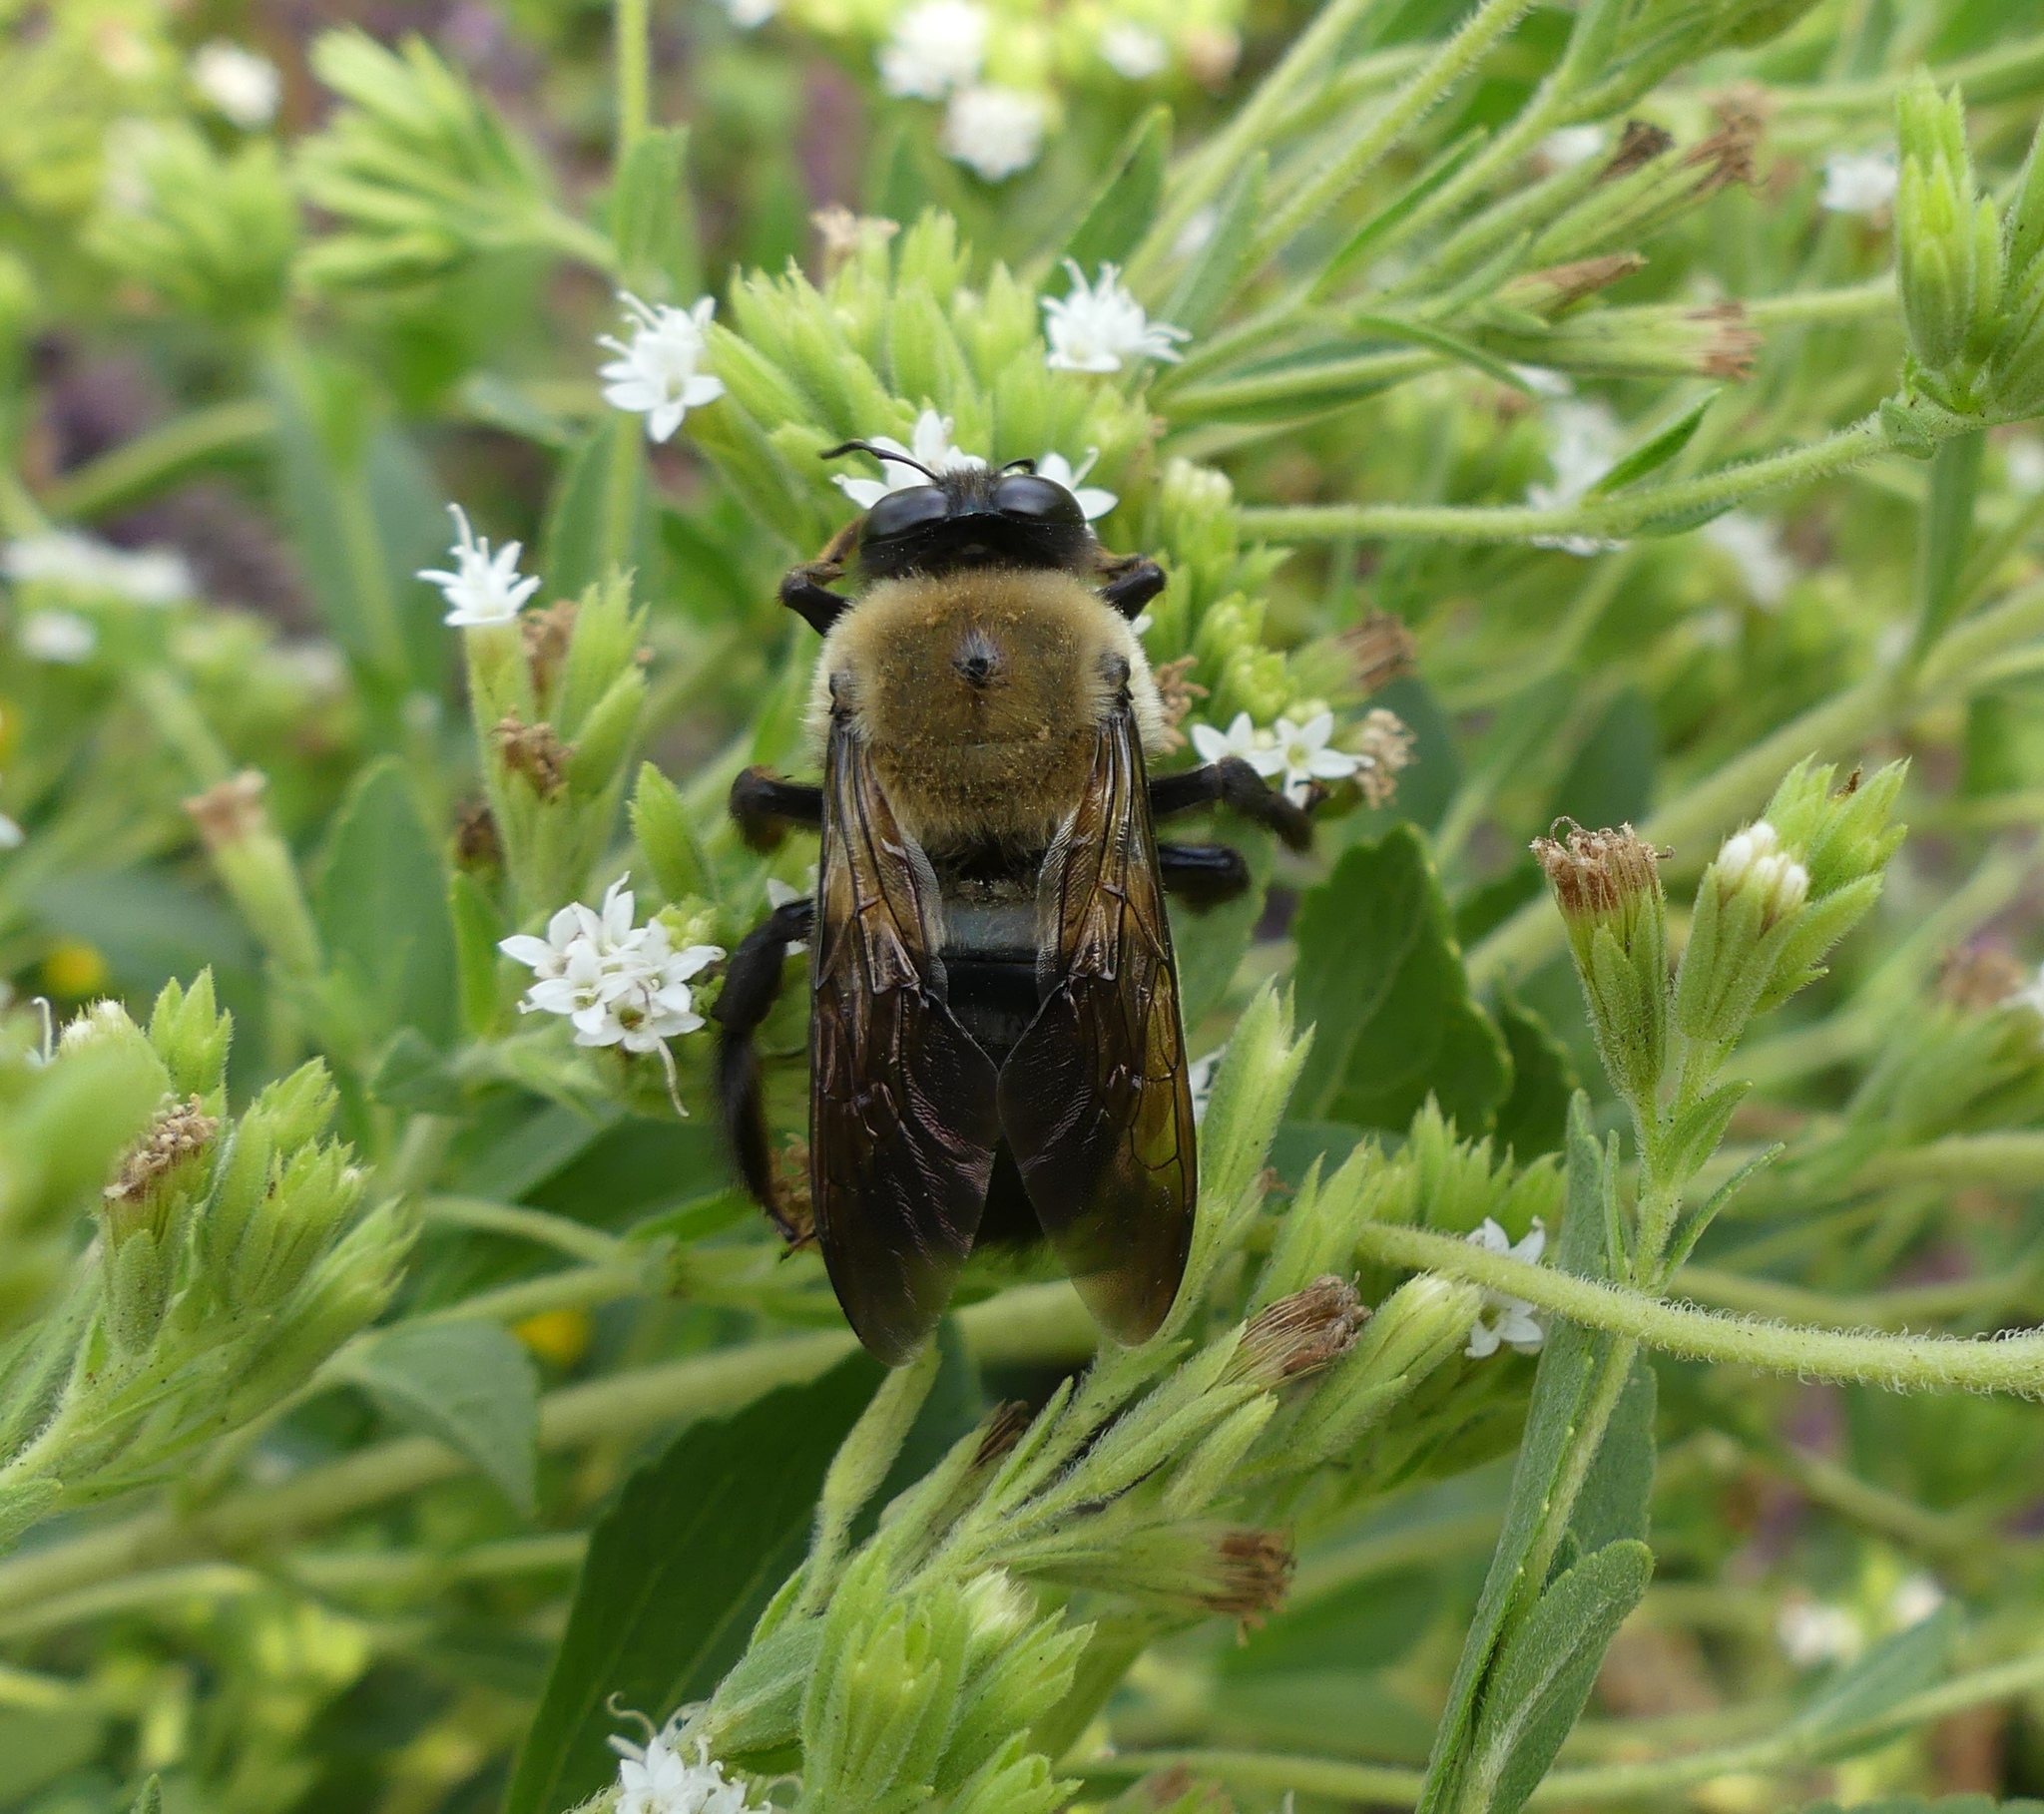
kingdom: Animalia
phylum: Arthropoda
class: Insecta
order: Hymenoptera
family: Apidae
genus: Xylocopa
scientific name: Xylocopa virginica
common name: Carpenter bee
